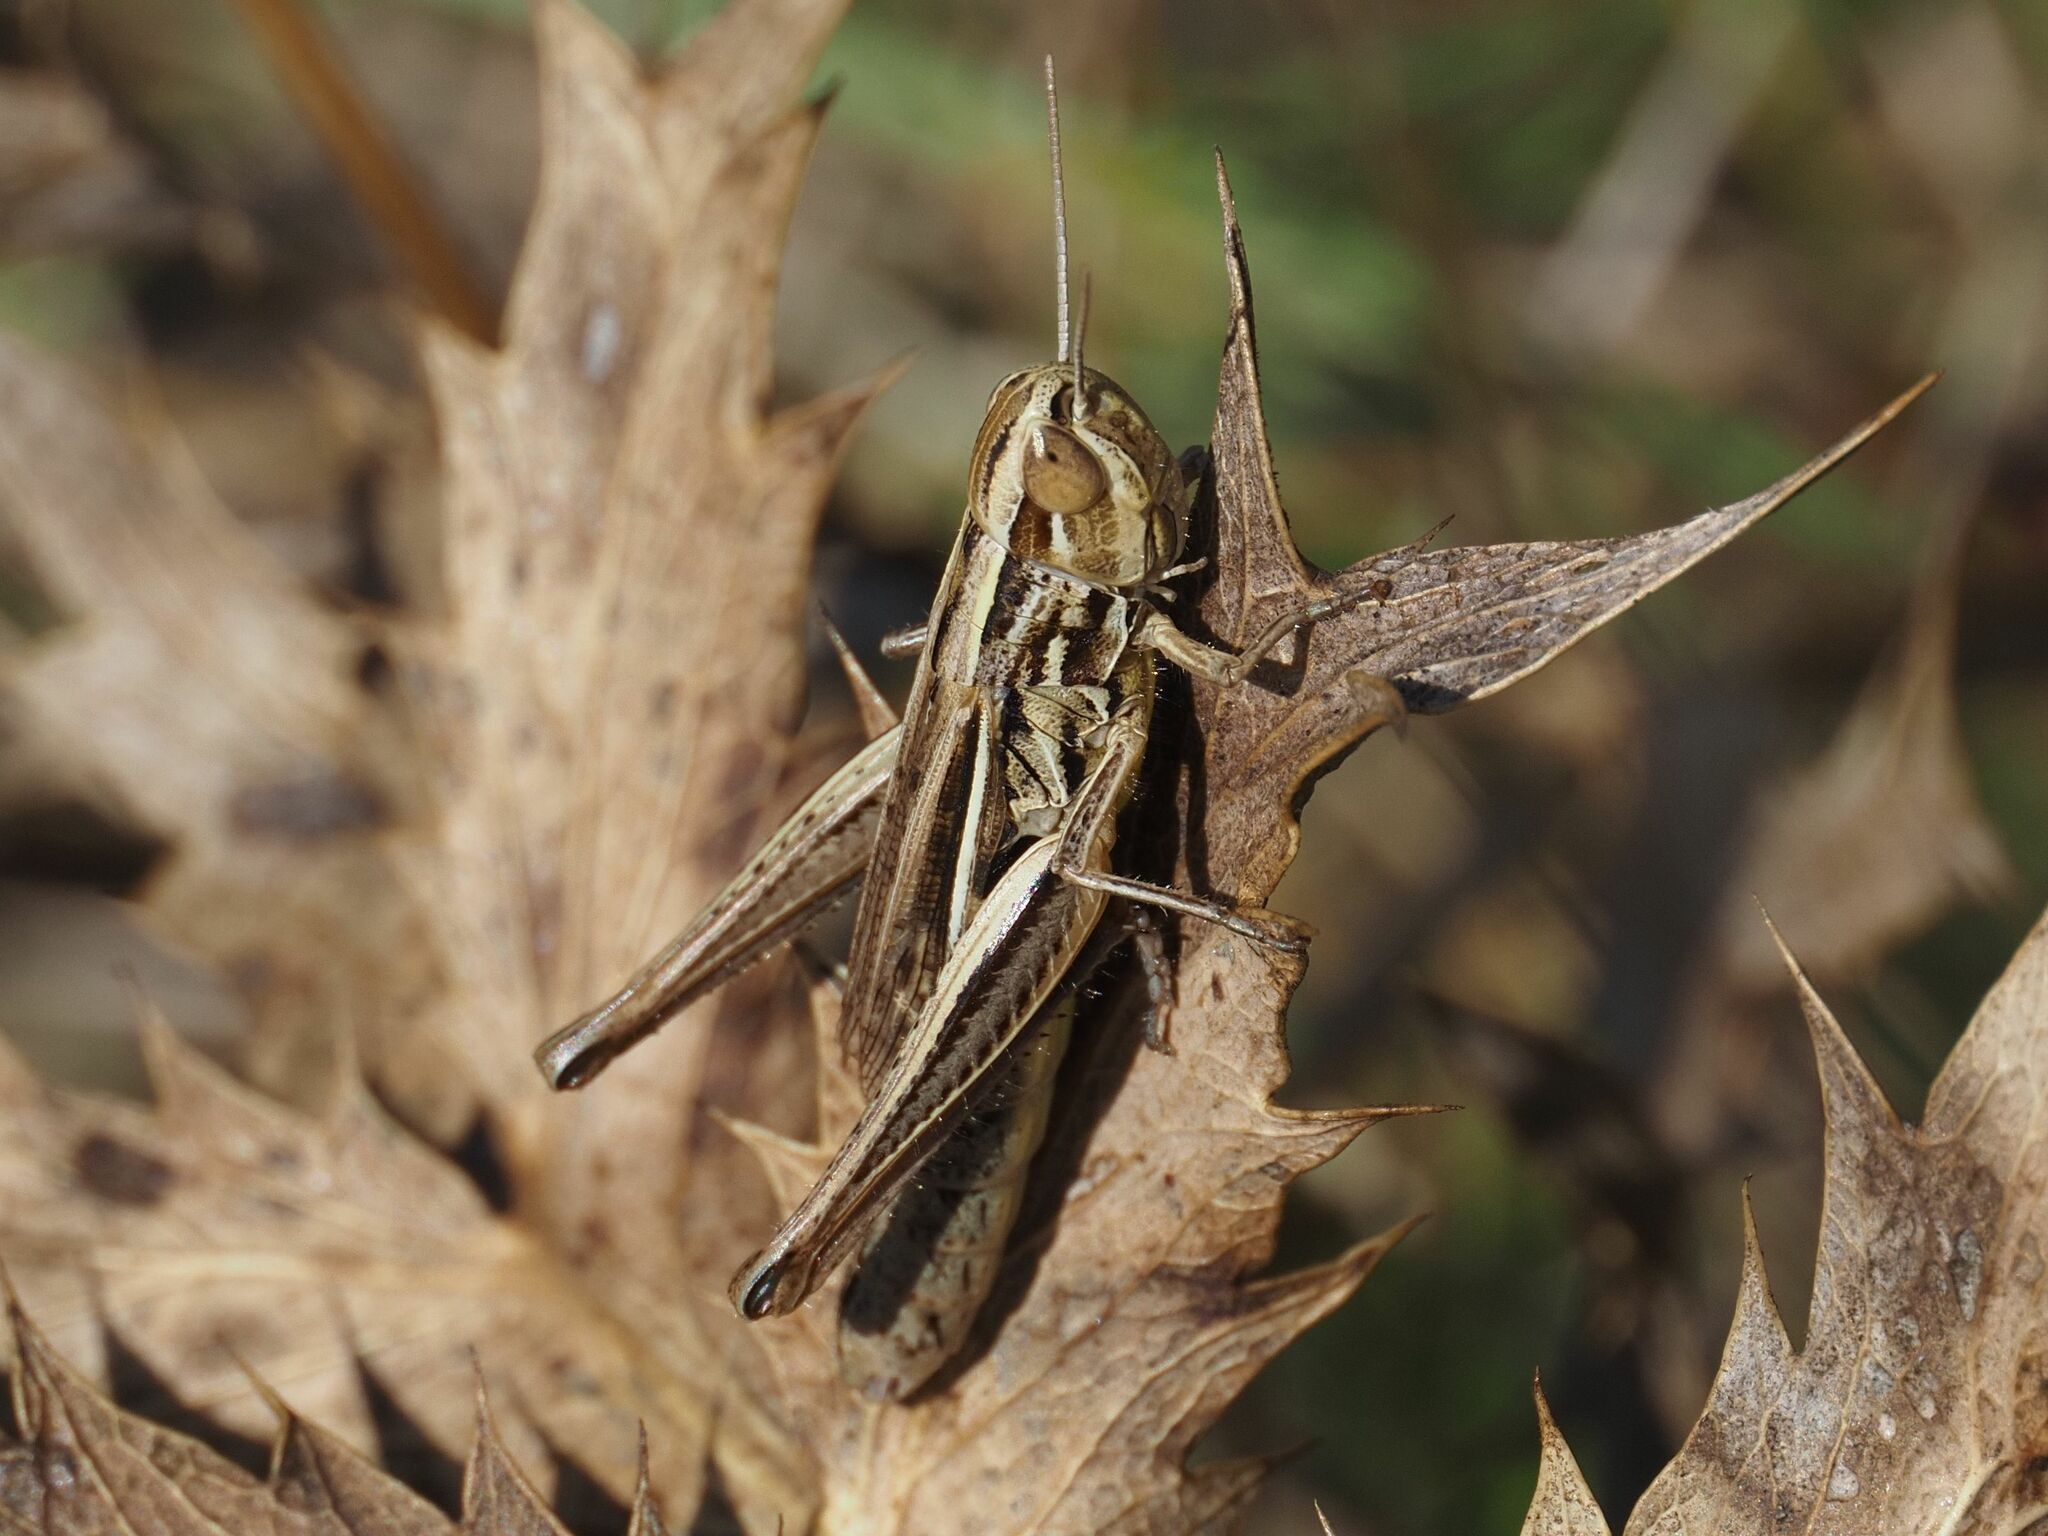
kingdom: Animalia
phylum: Arthropoda
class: Insecta
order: Orthoptera
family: Acrididae
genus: Euchorthippus
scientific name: Euchorthippus declivus
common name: Common straw grasshopper
